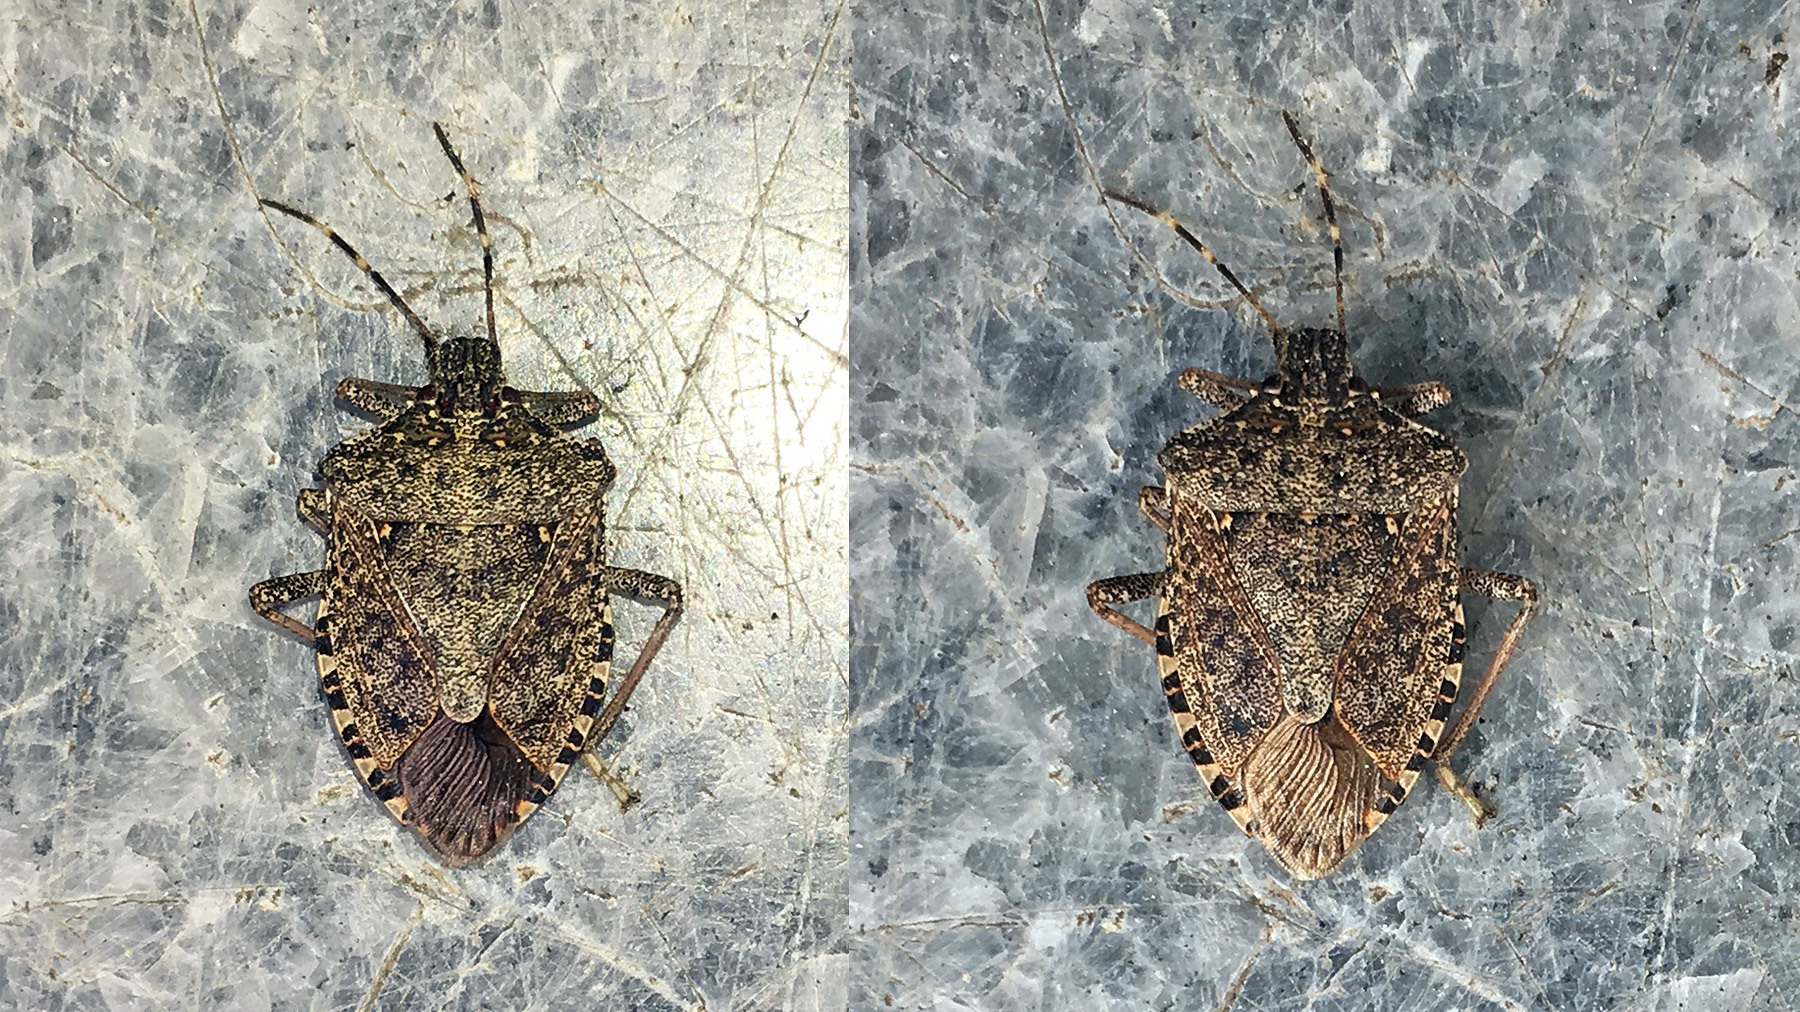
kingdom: Animalia
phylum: Arthropoda
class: Insecta
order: Hemiptera
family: Pentatomidae
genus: Halyomorpha
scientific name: Halyomorpha halys
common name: Brown marmorated stink bug
